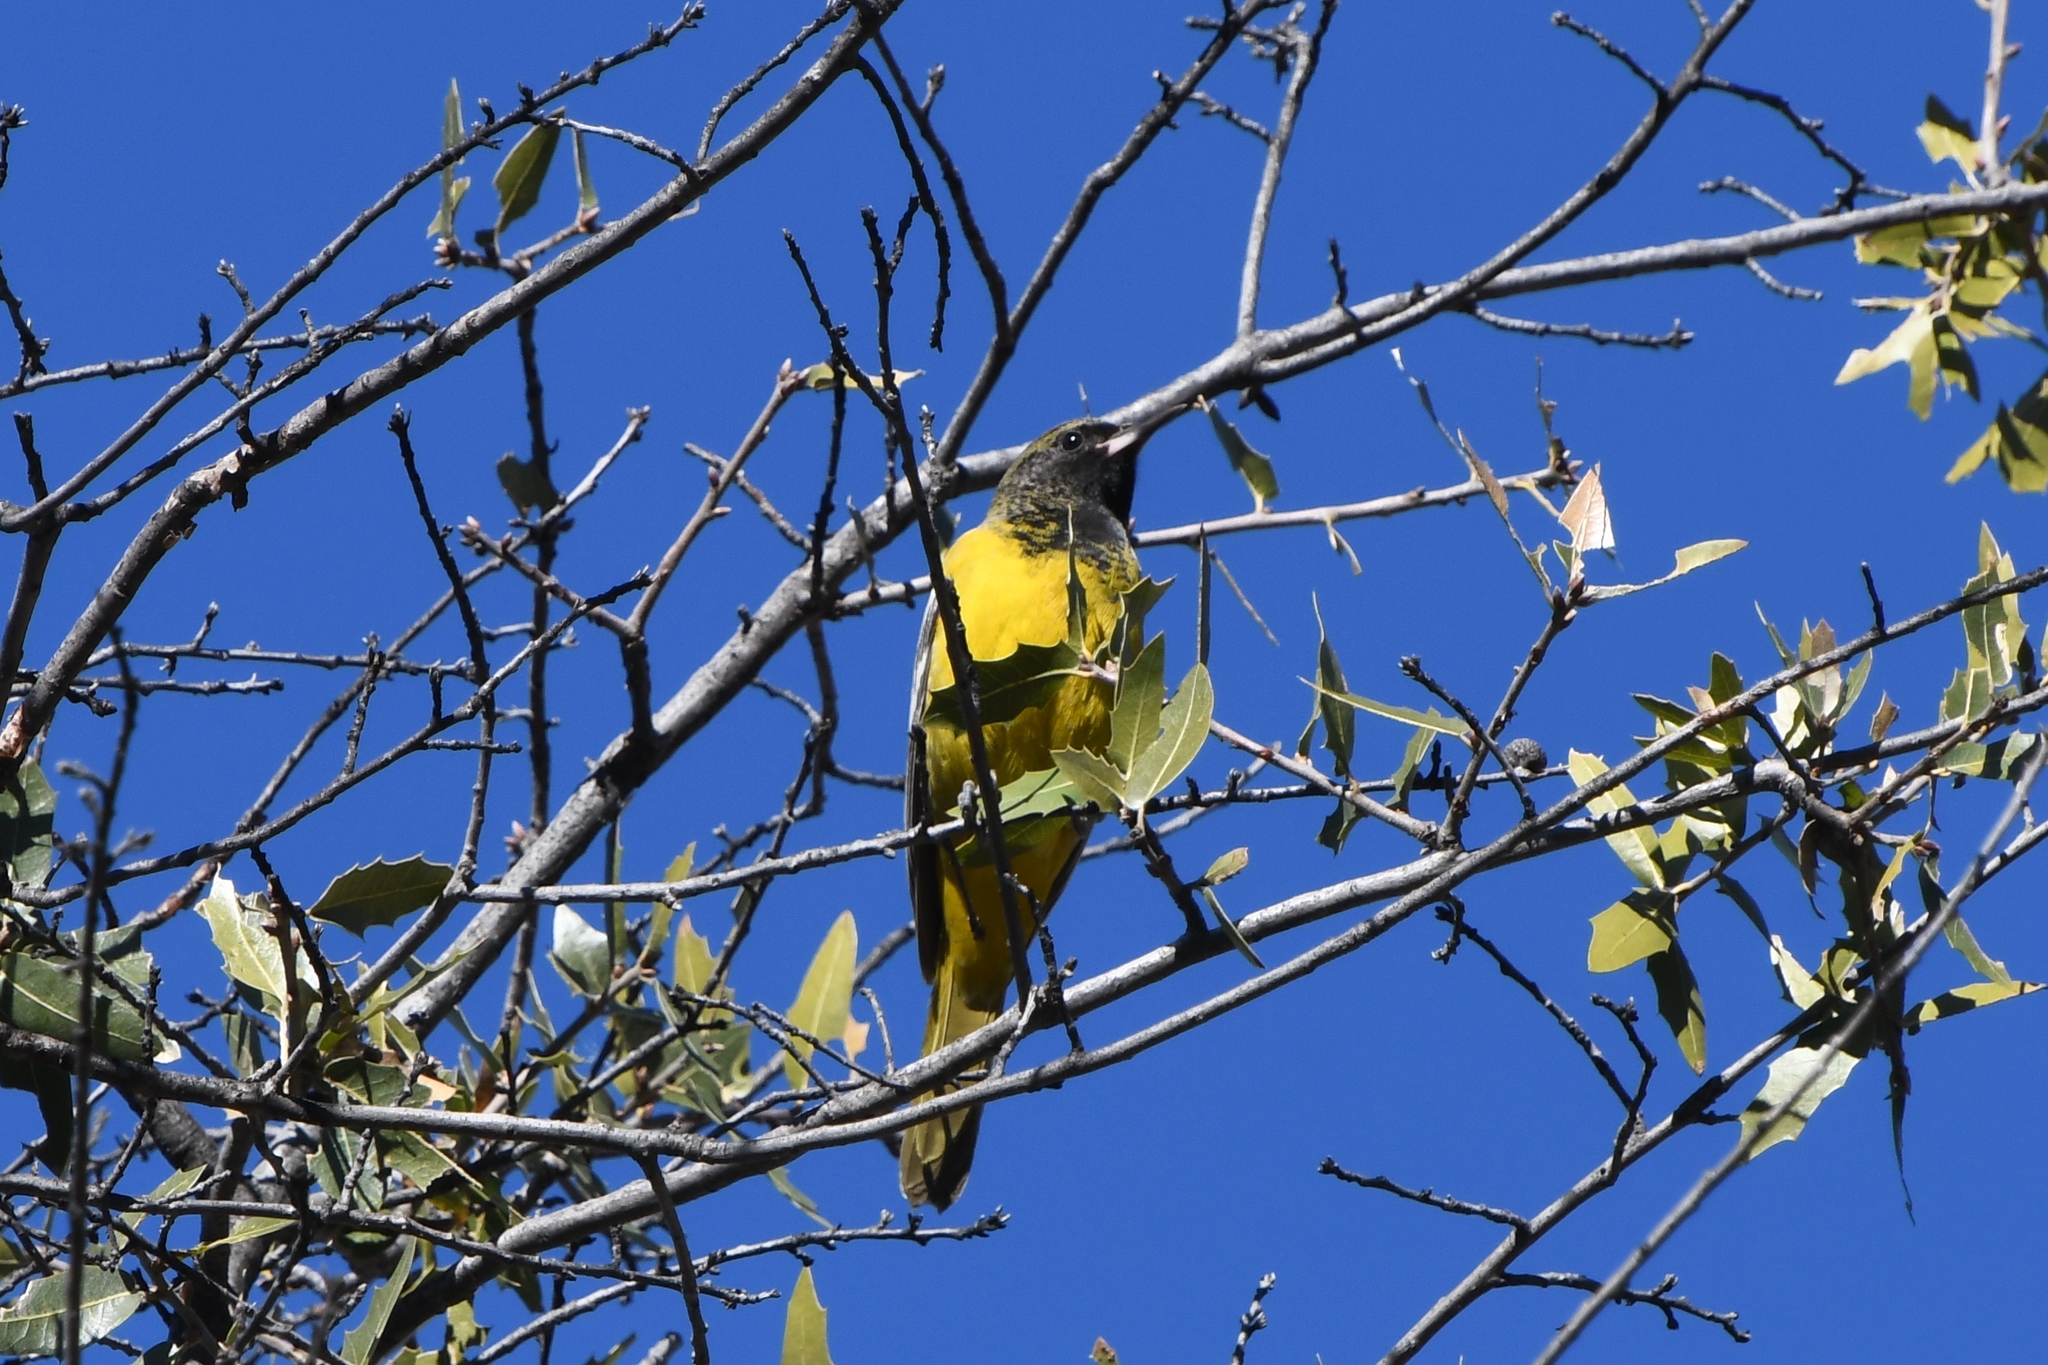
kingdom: Animalia
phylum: Chordata
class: Aves
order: Passeriformes
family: Icteridae
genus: Icterus
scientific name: Icterus parisorum
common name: Scott's oriole
